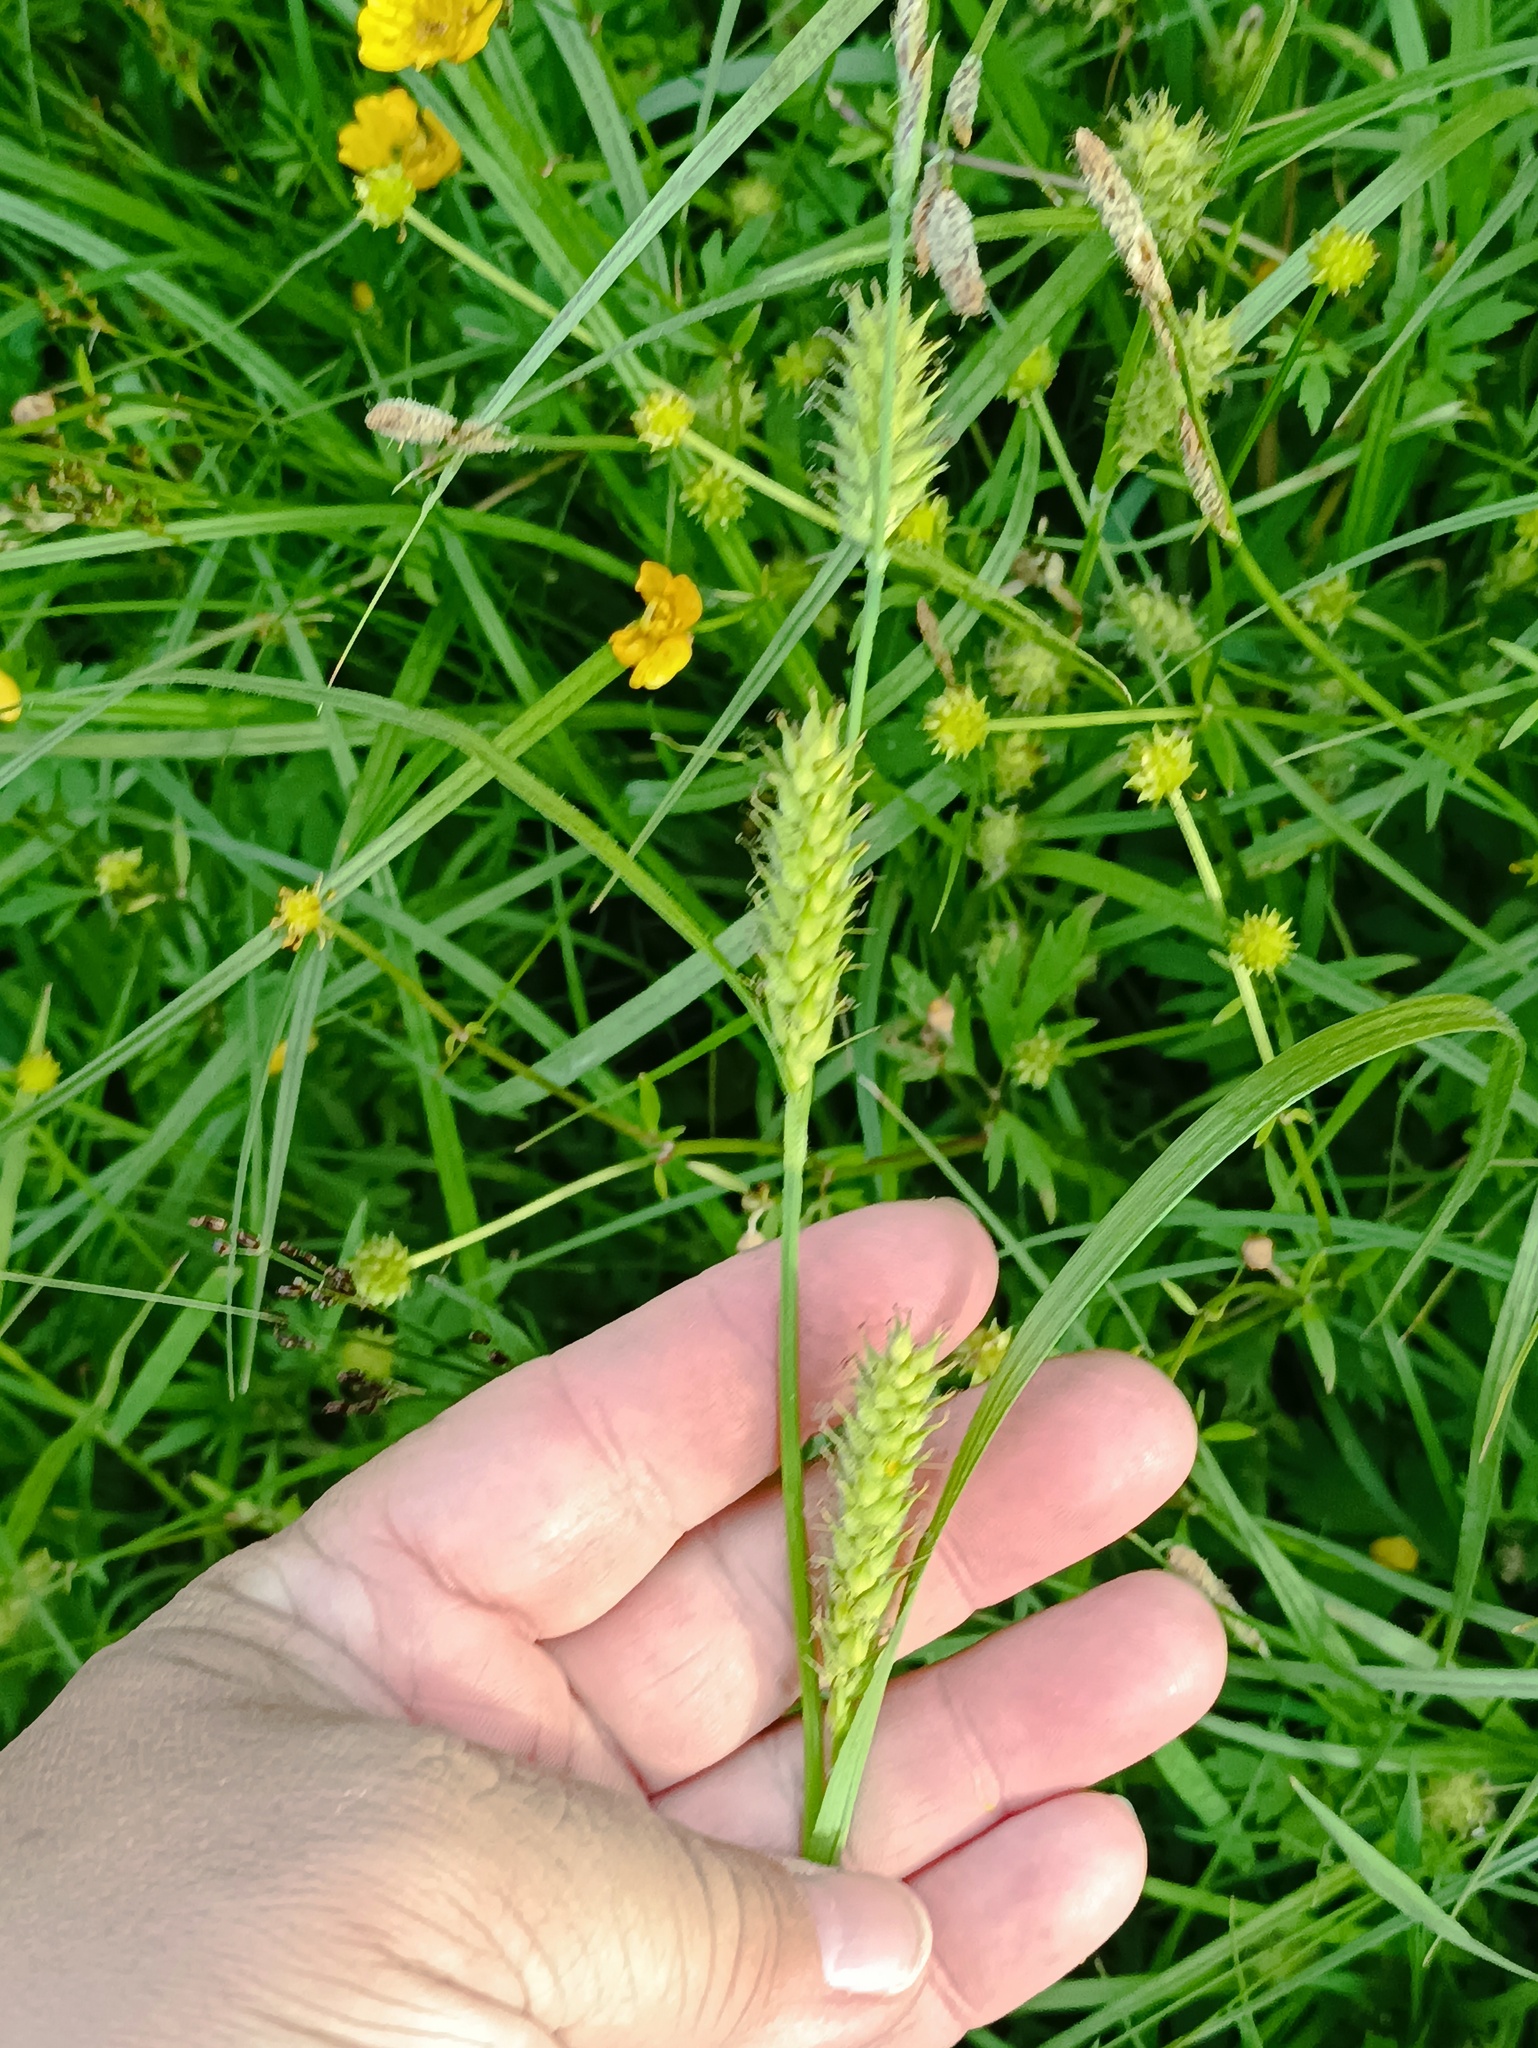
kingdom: Plantae
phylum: Tracheophyta
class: Liliopsida
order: Poales
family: Cyperaceae
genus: Carex
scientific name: Carex hirta
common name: Hairy sedge
